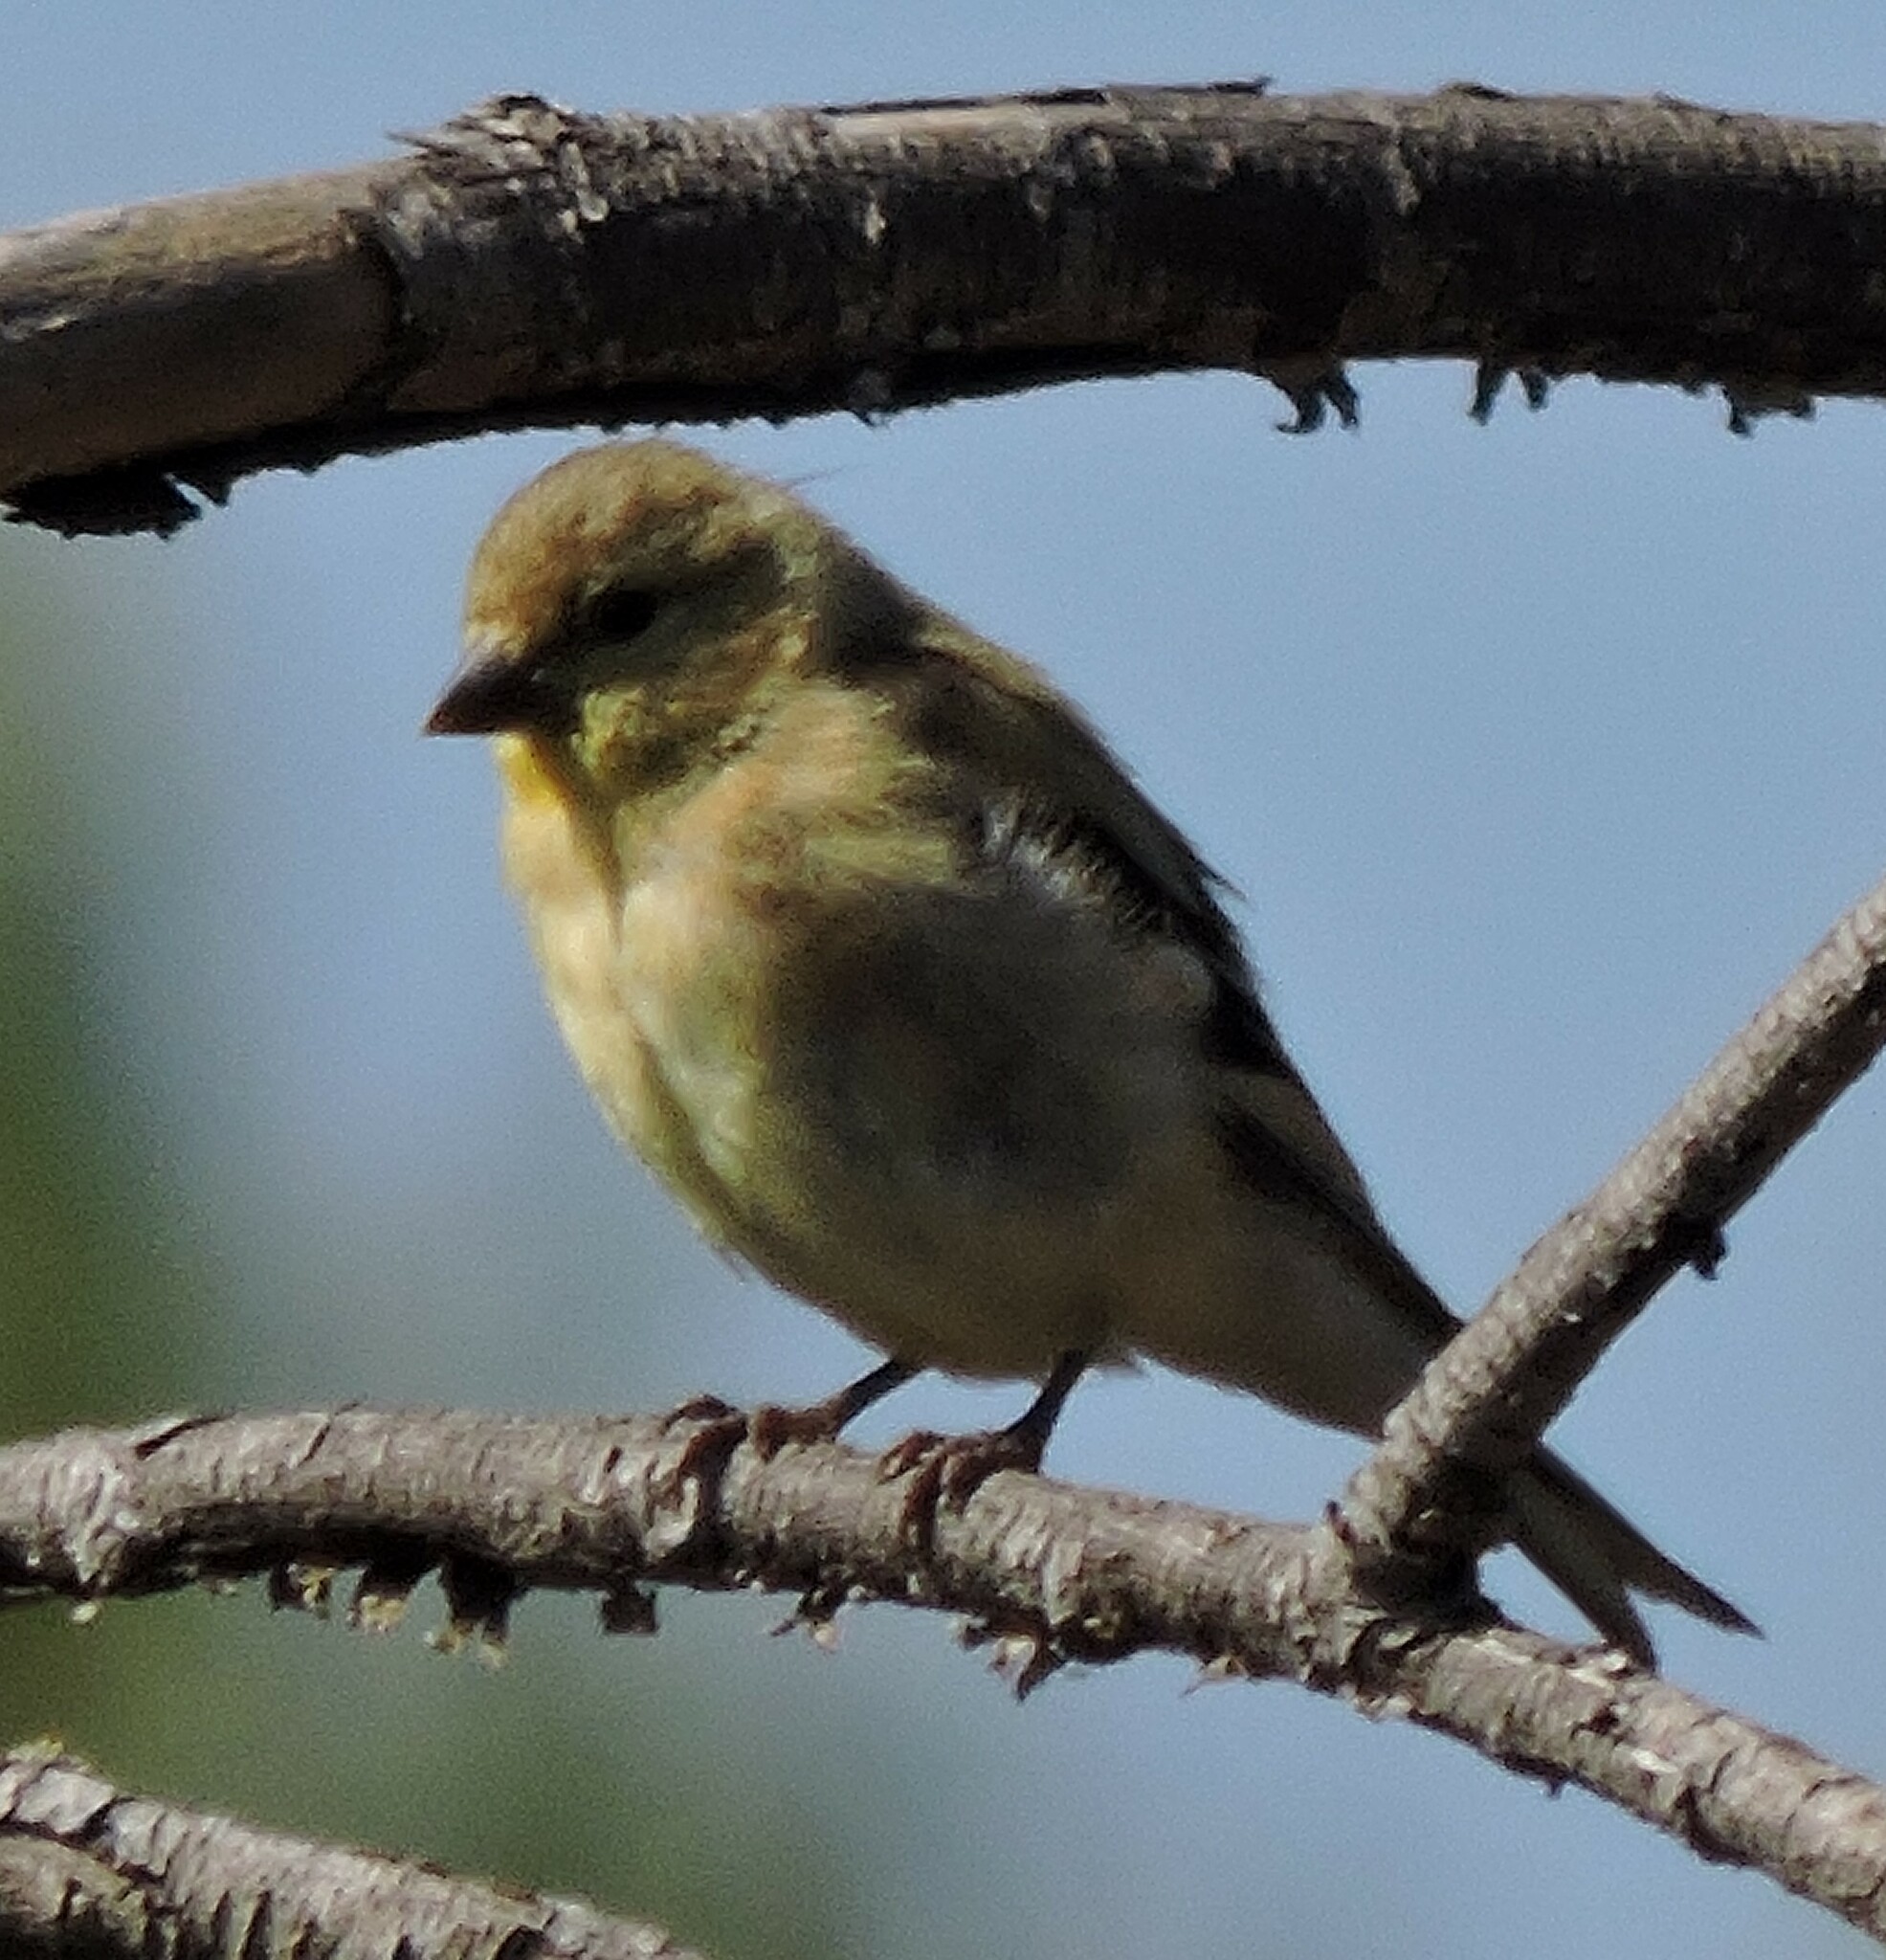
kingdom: Animalia
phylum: Chordata
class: Aves
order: Passeriformes
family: Fringillidae
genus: Spinus
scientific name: Spinus tristis
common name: American goldfinch
